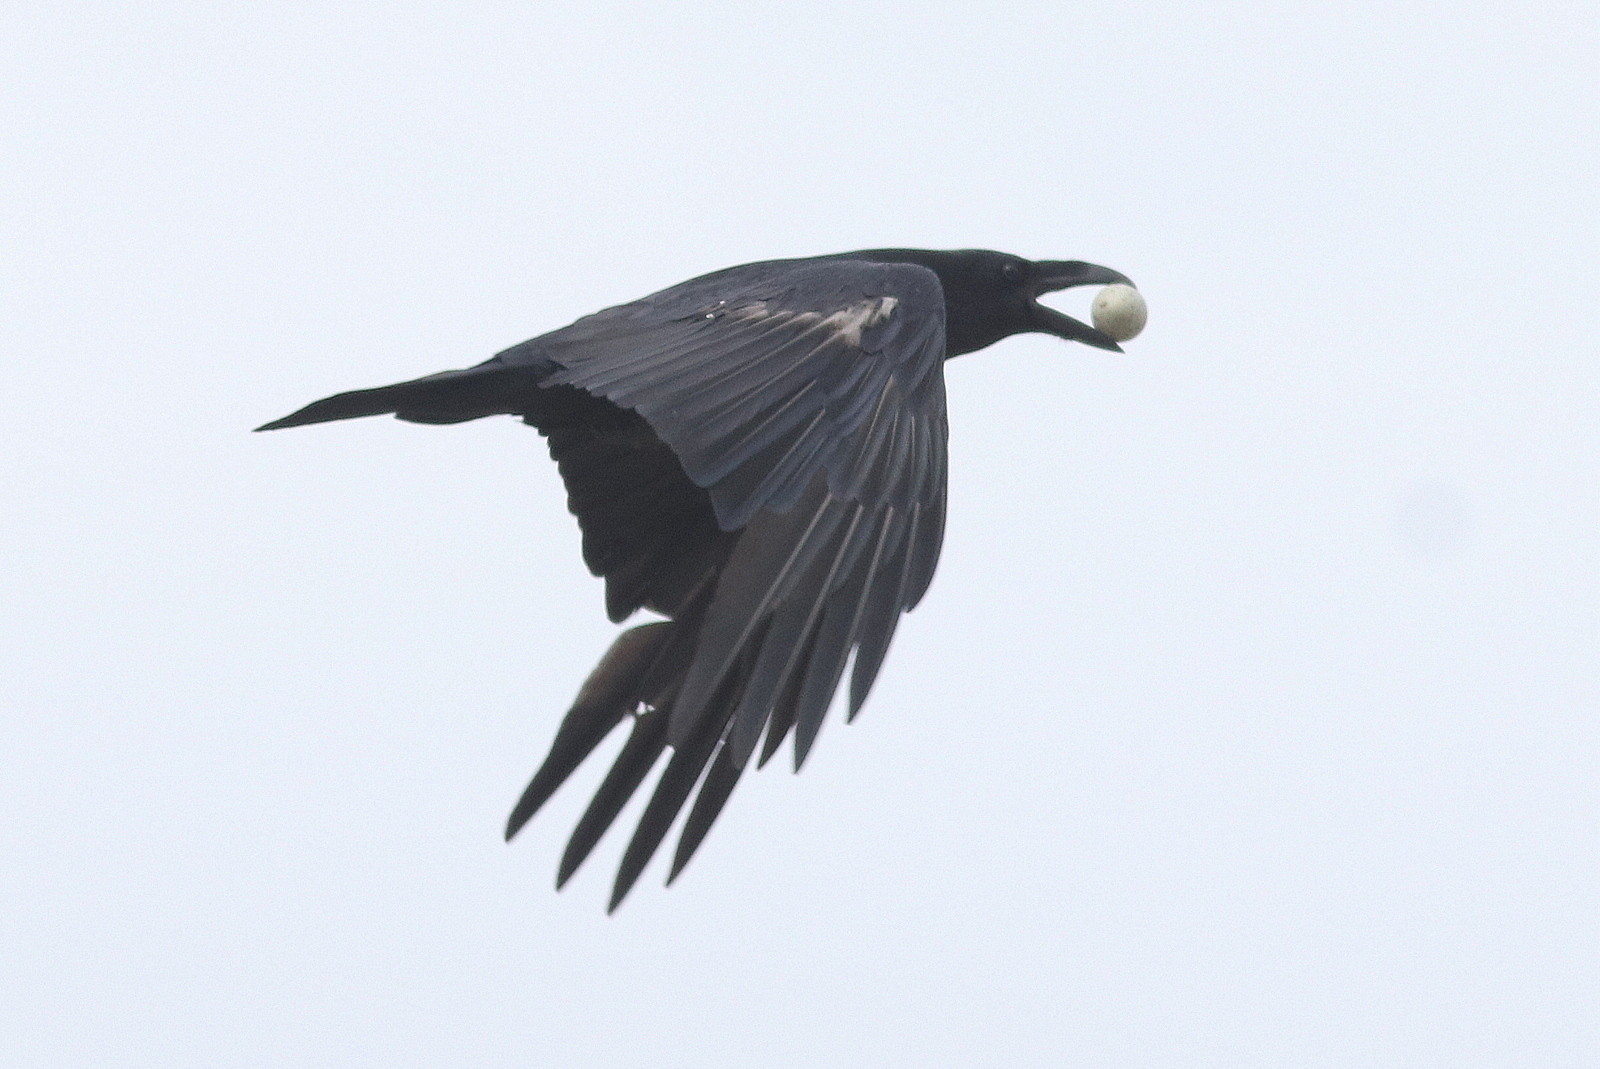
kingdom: Animalia
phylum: Chordata
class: Aves
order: Passeriformes
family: Corvidae
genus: Corvus
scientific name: Corvus corax
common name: Common raven
